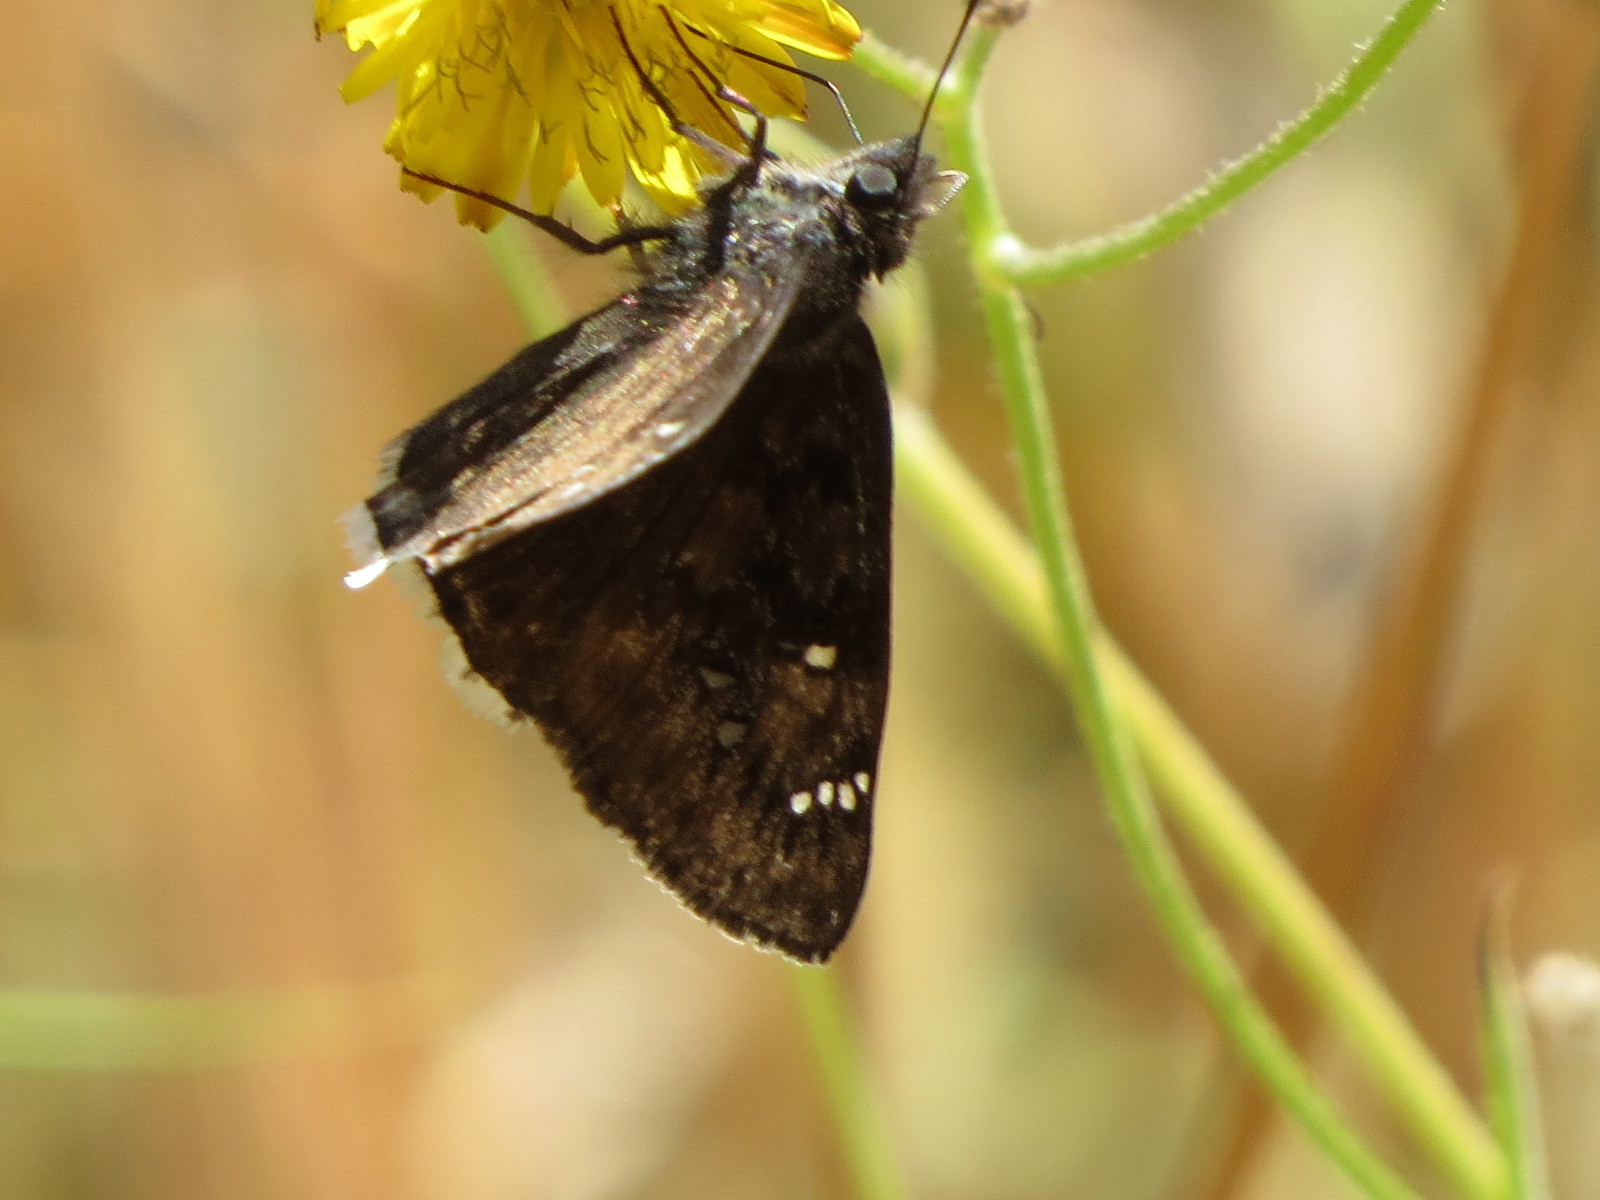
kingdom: Animalia
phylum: Arthropoda
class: Insecta
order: Lepidoptera
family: Hesperiidae
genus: Erynnis
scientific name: Erynnis tristis
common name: Mournful duskywing
